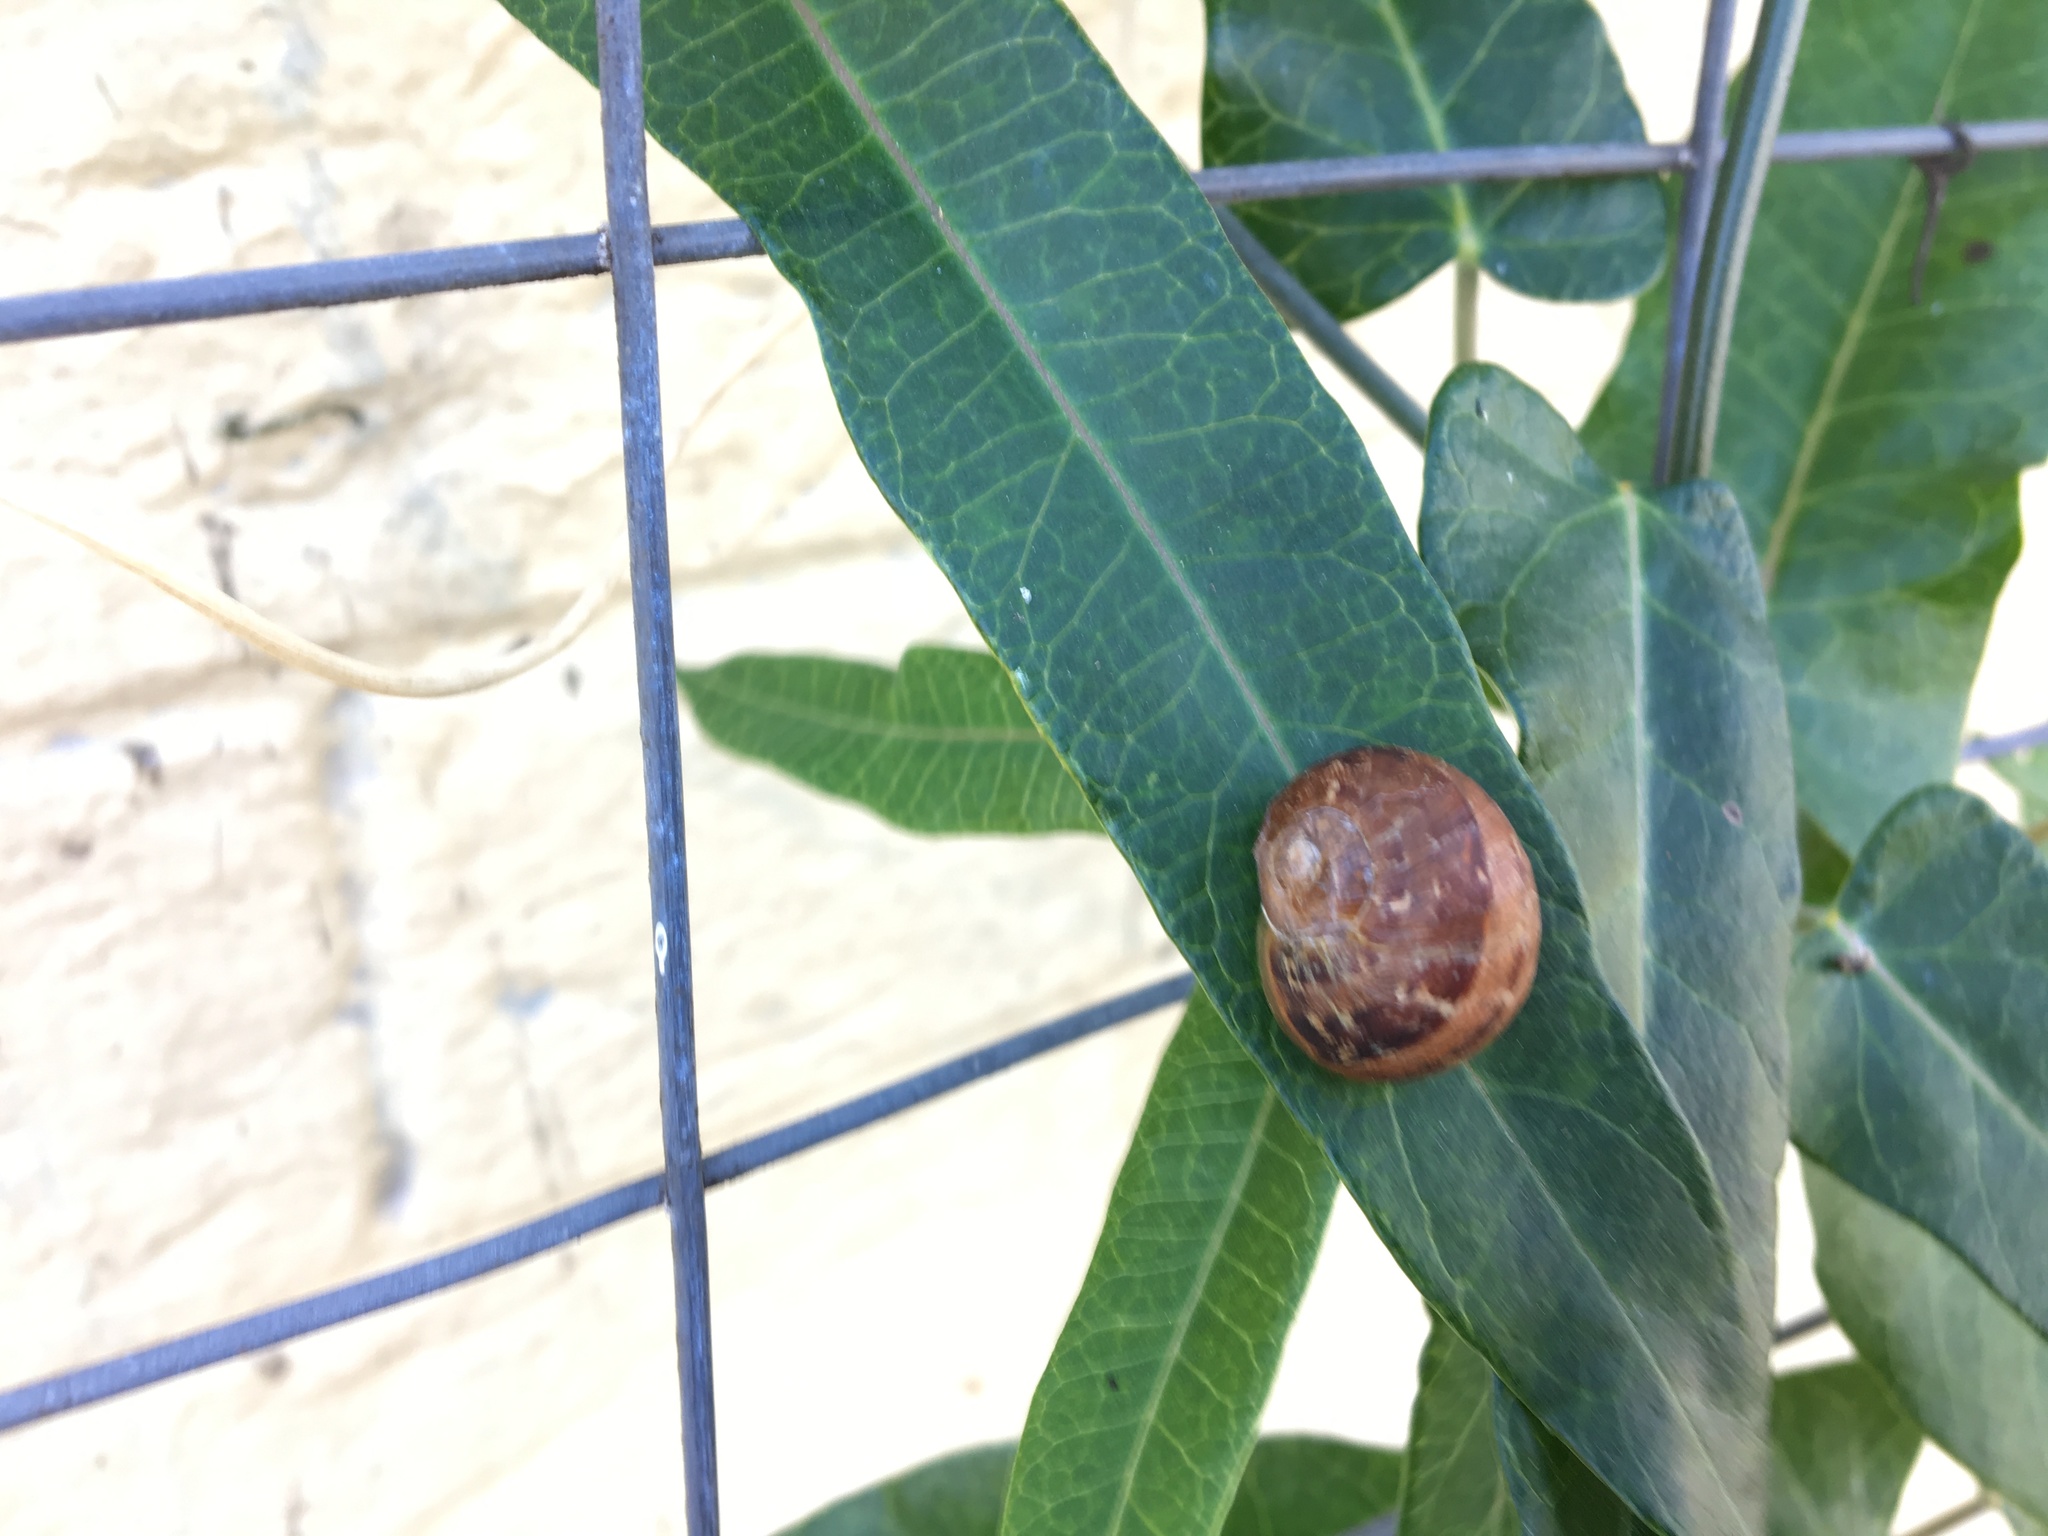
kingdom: Animalia
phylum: Mollusca
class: Gastropoda
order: Stylommatophora
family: Helicidae
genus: Cornu
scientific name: Cornu aspersum
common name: Brown garden snail
